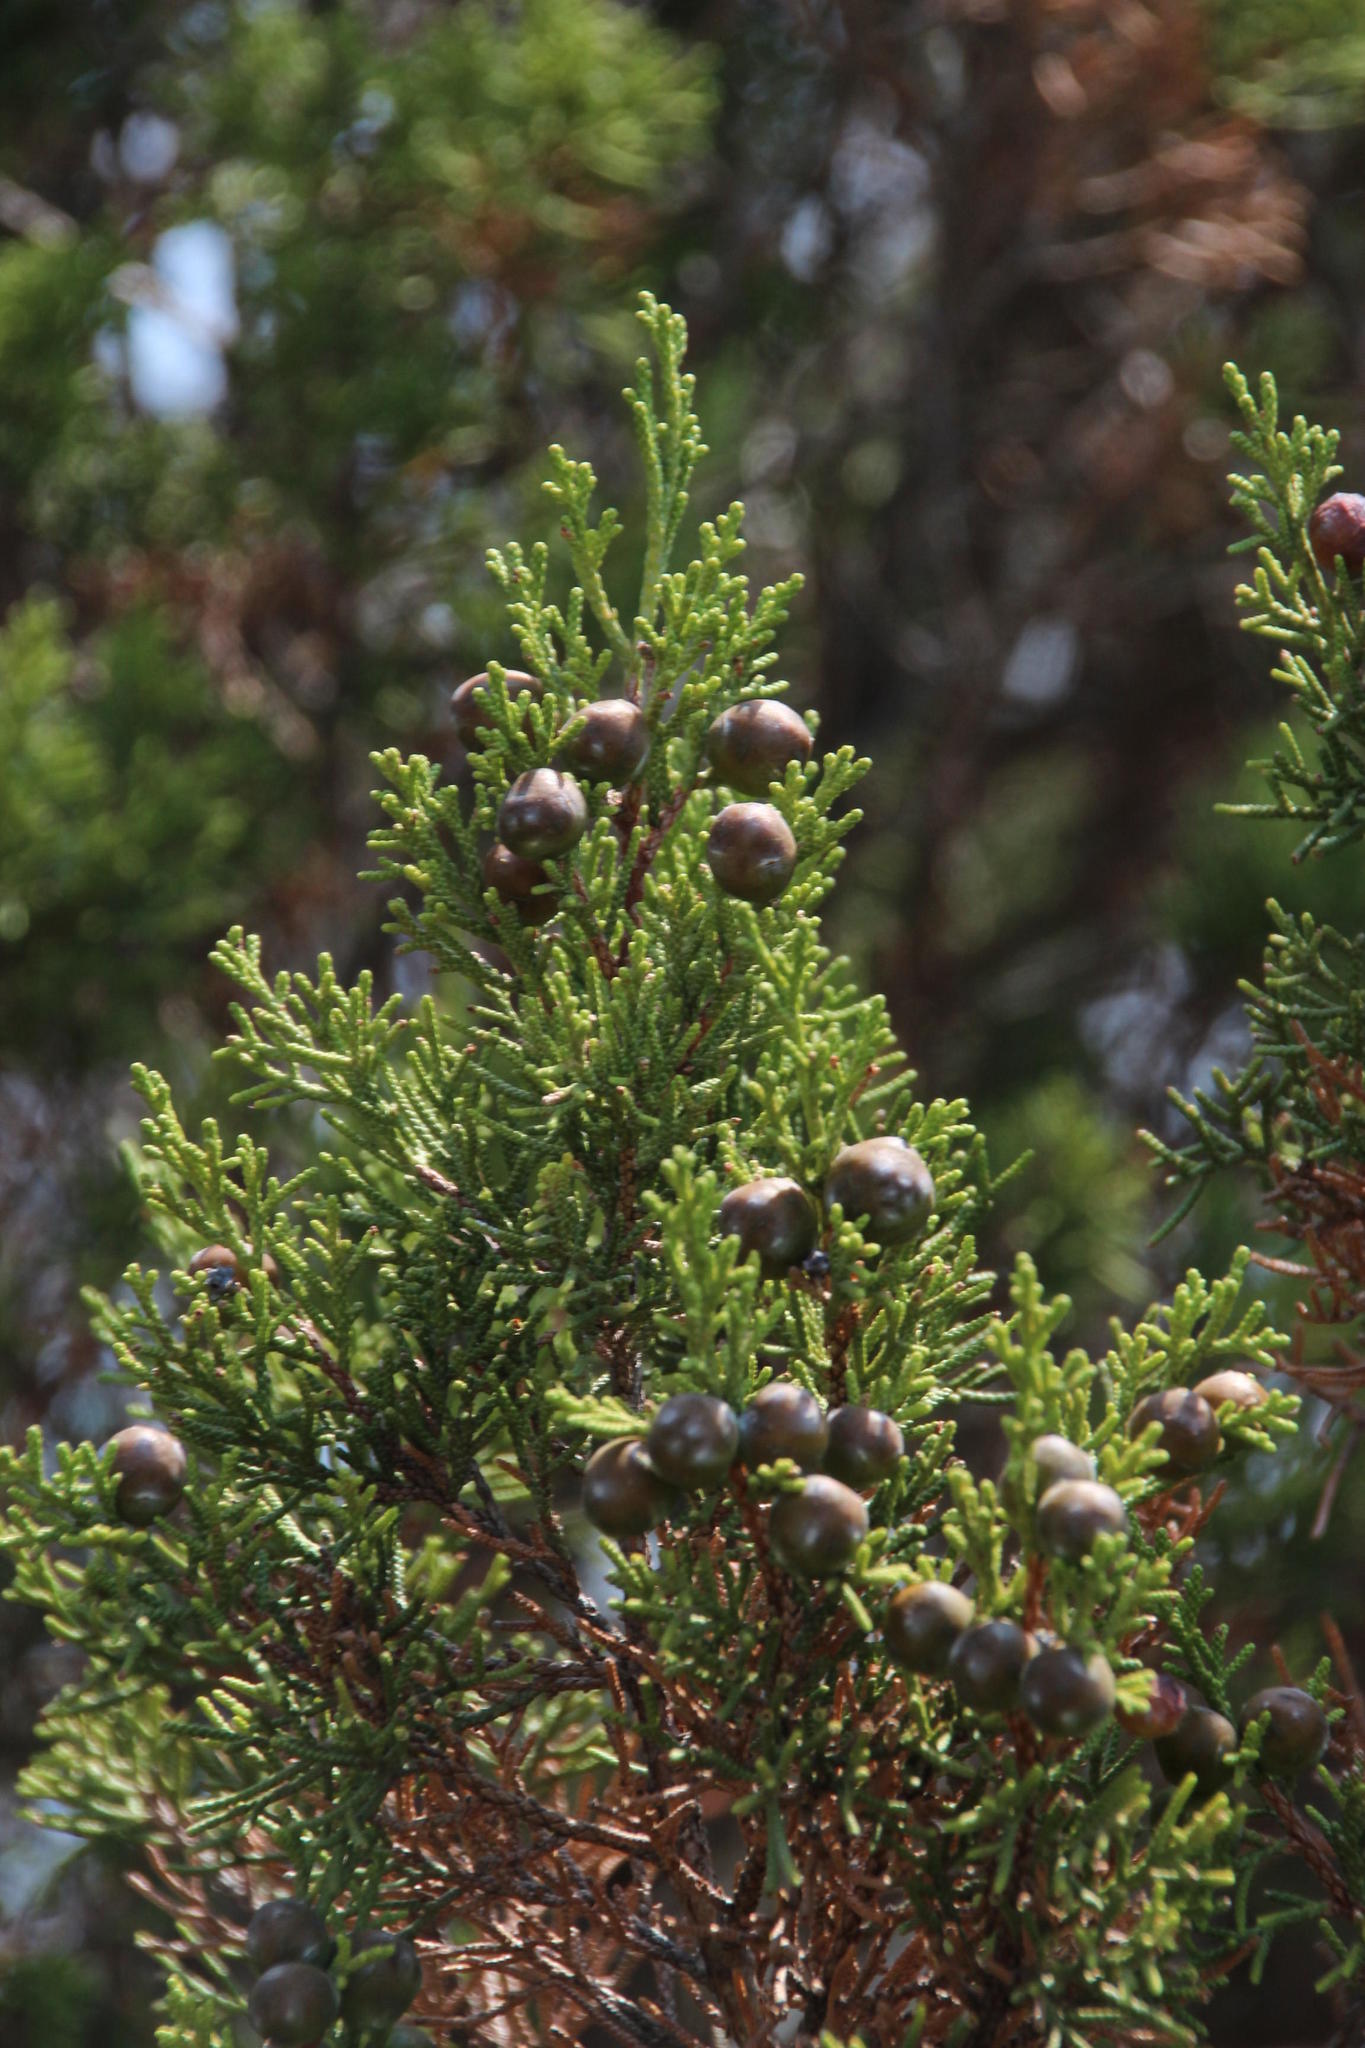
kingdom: Plantae
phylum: Tracheophyta
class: Pinopsida
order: Pinales
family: Cupressaceae
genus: Juniperus
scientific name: Juniperus phoenicea
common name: Phoenician juniper
